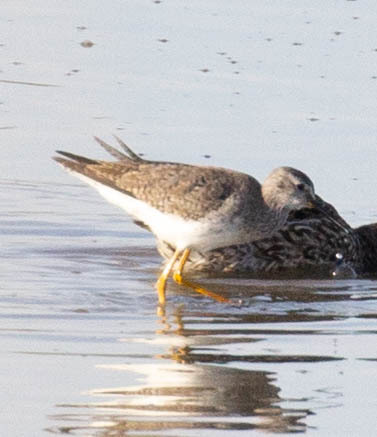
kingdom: Animalia
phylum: Chordata
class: Aves
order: Charadriiformes
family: Scolopacidae
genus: Tringa
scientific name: Tringa flavipes
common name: Lesser yellowlegs
